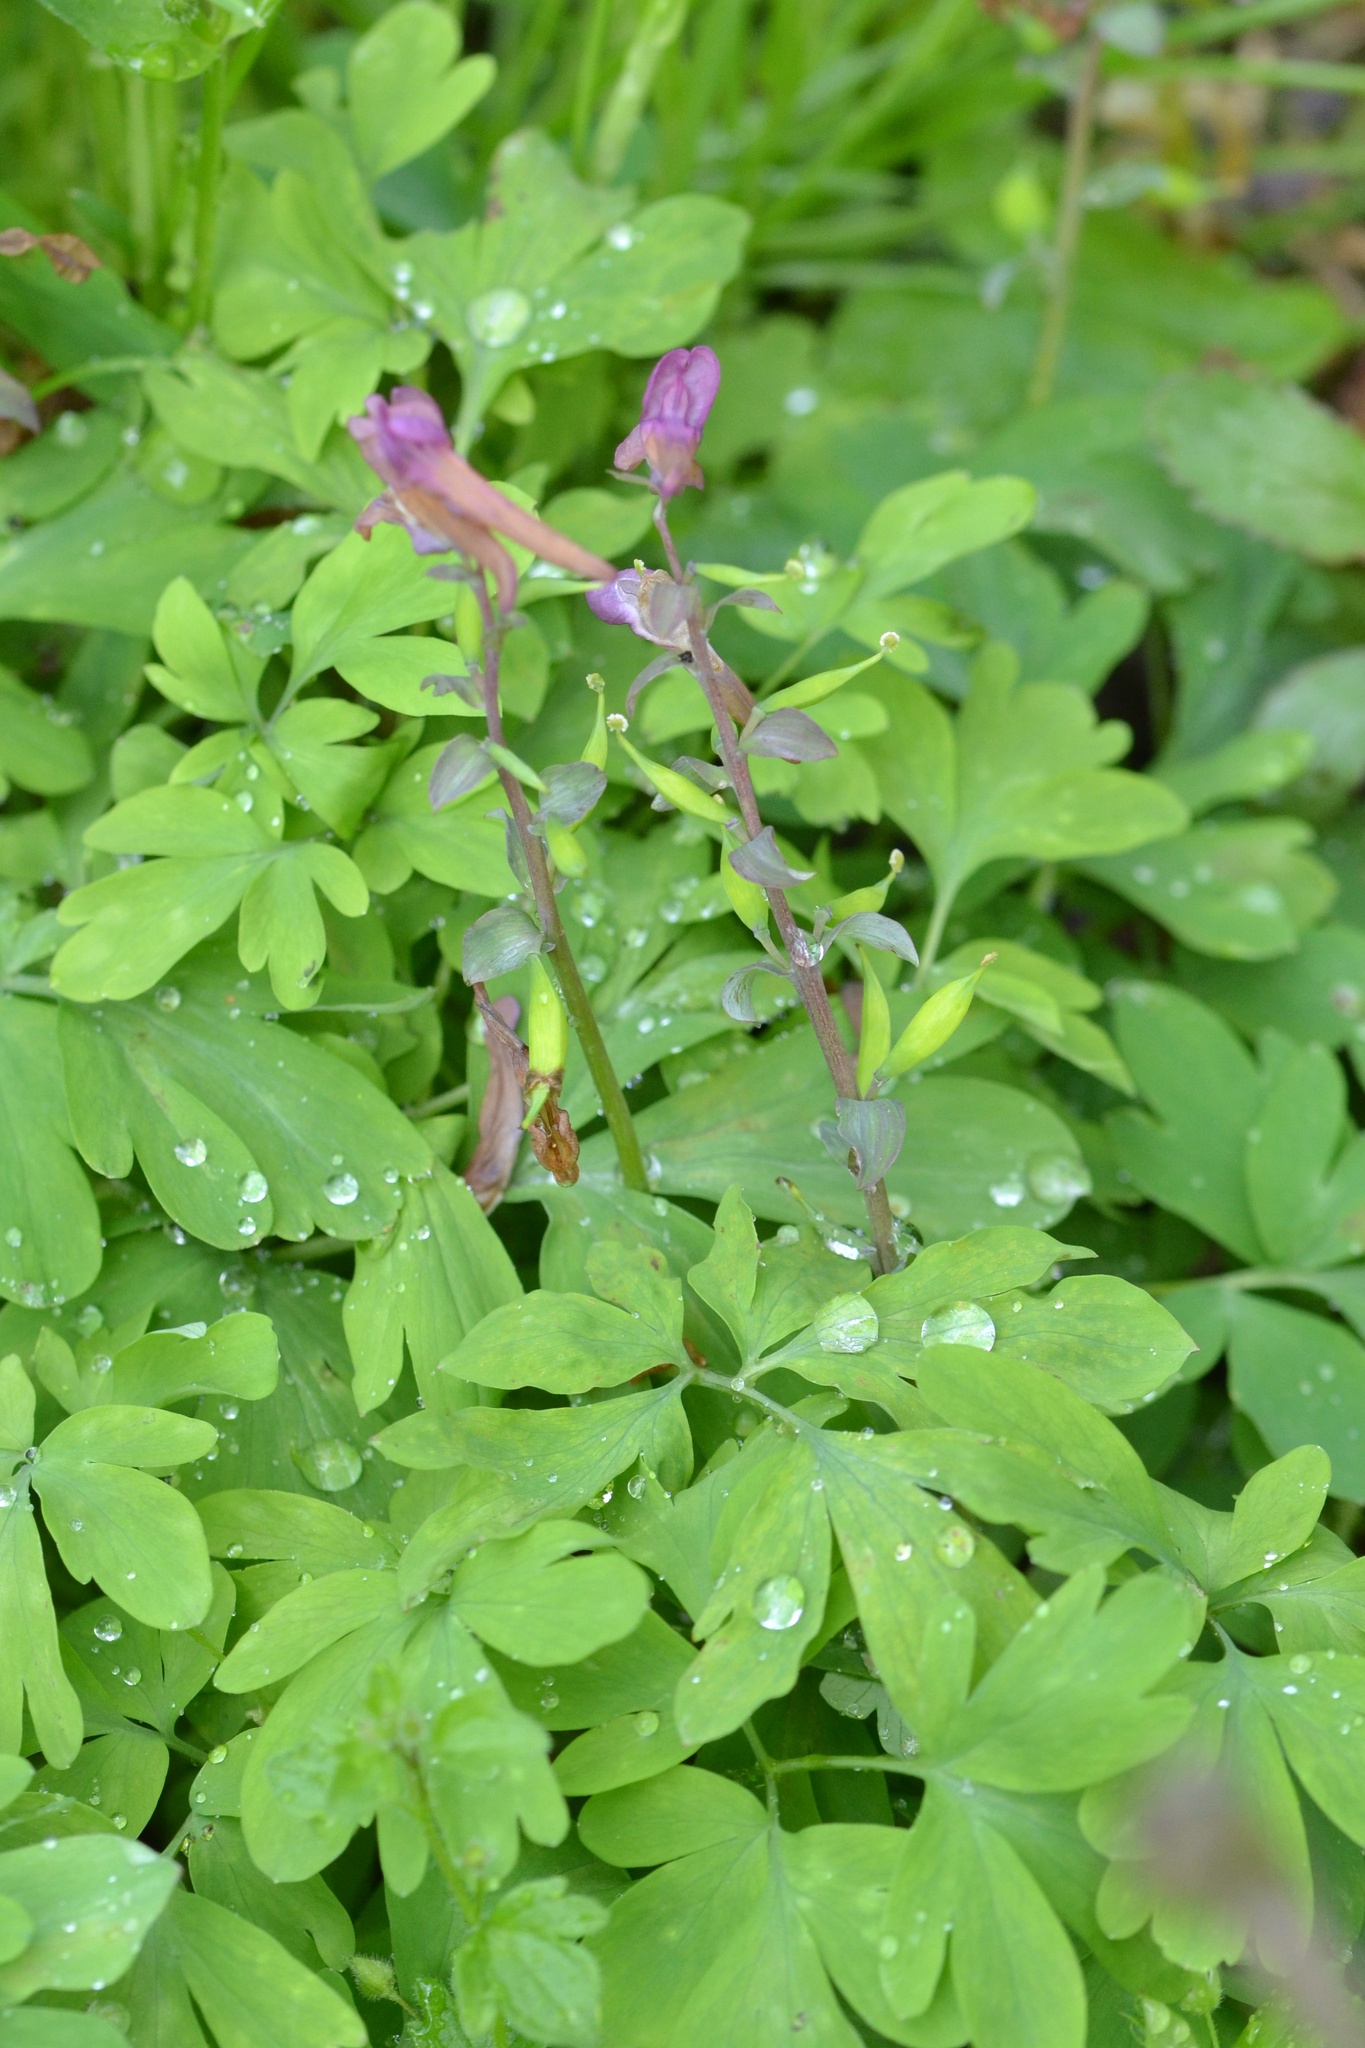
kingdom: Plantae
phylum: Tracheophyta
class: Magnoliopsida
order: Ranunculales
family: Papaveraceae
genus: Corydalis
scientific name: Corydalis cava
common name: Hollowroot
